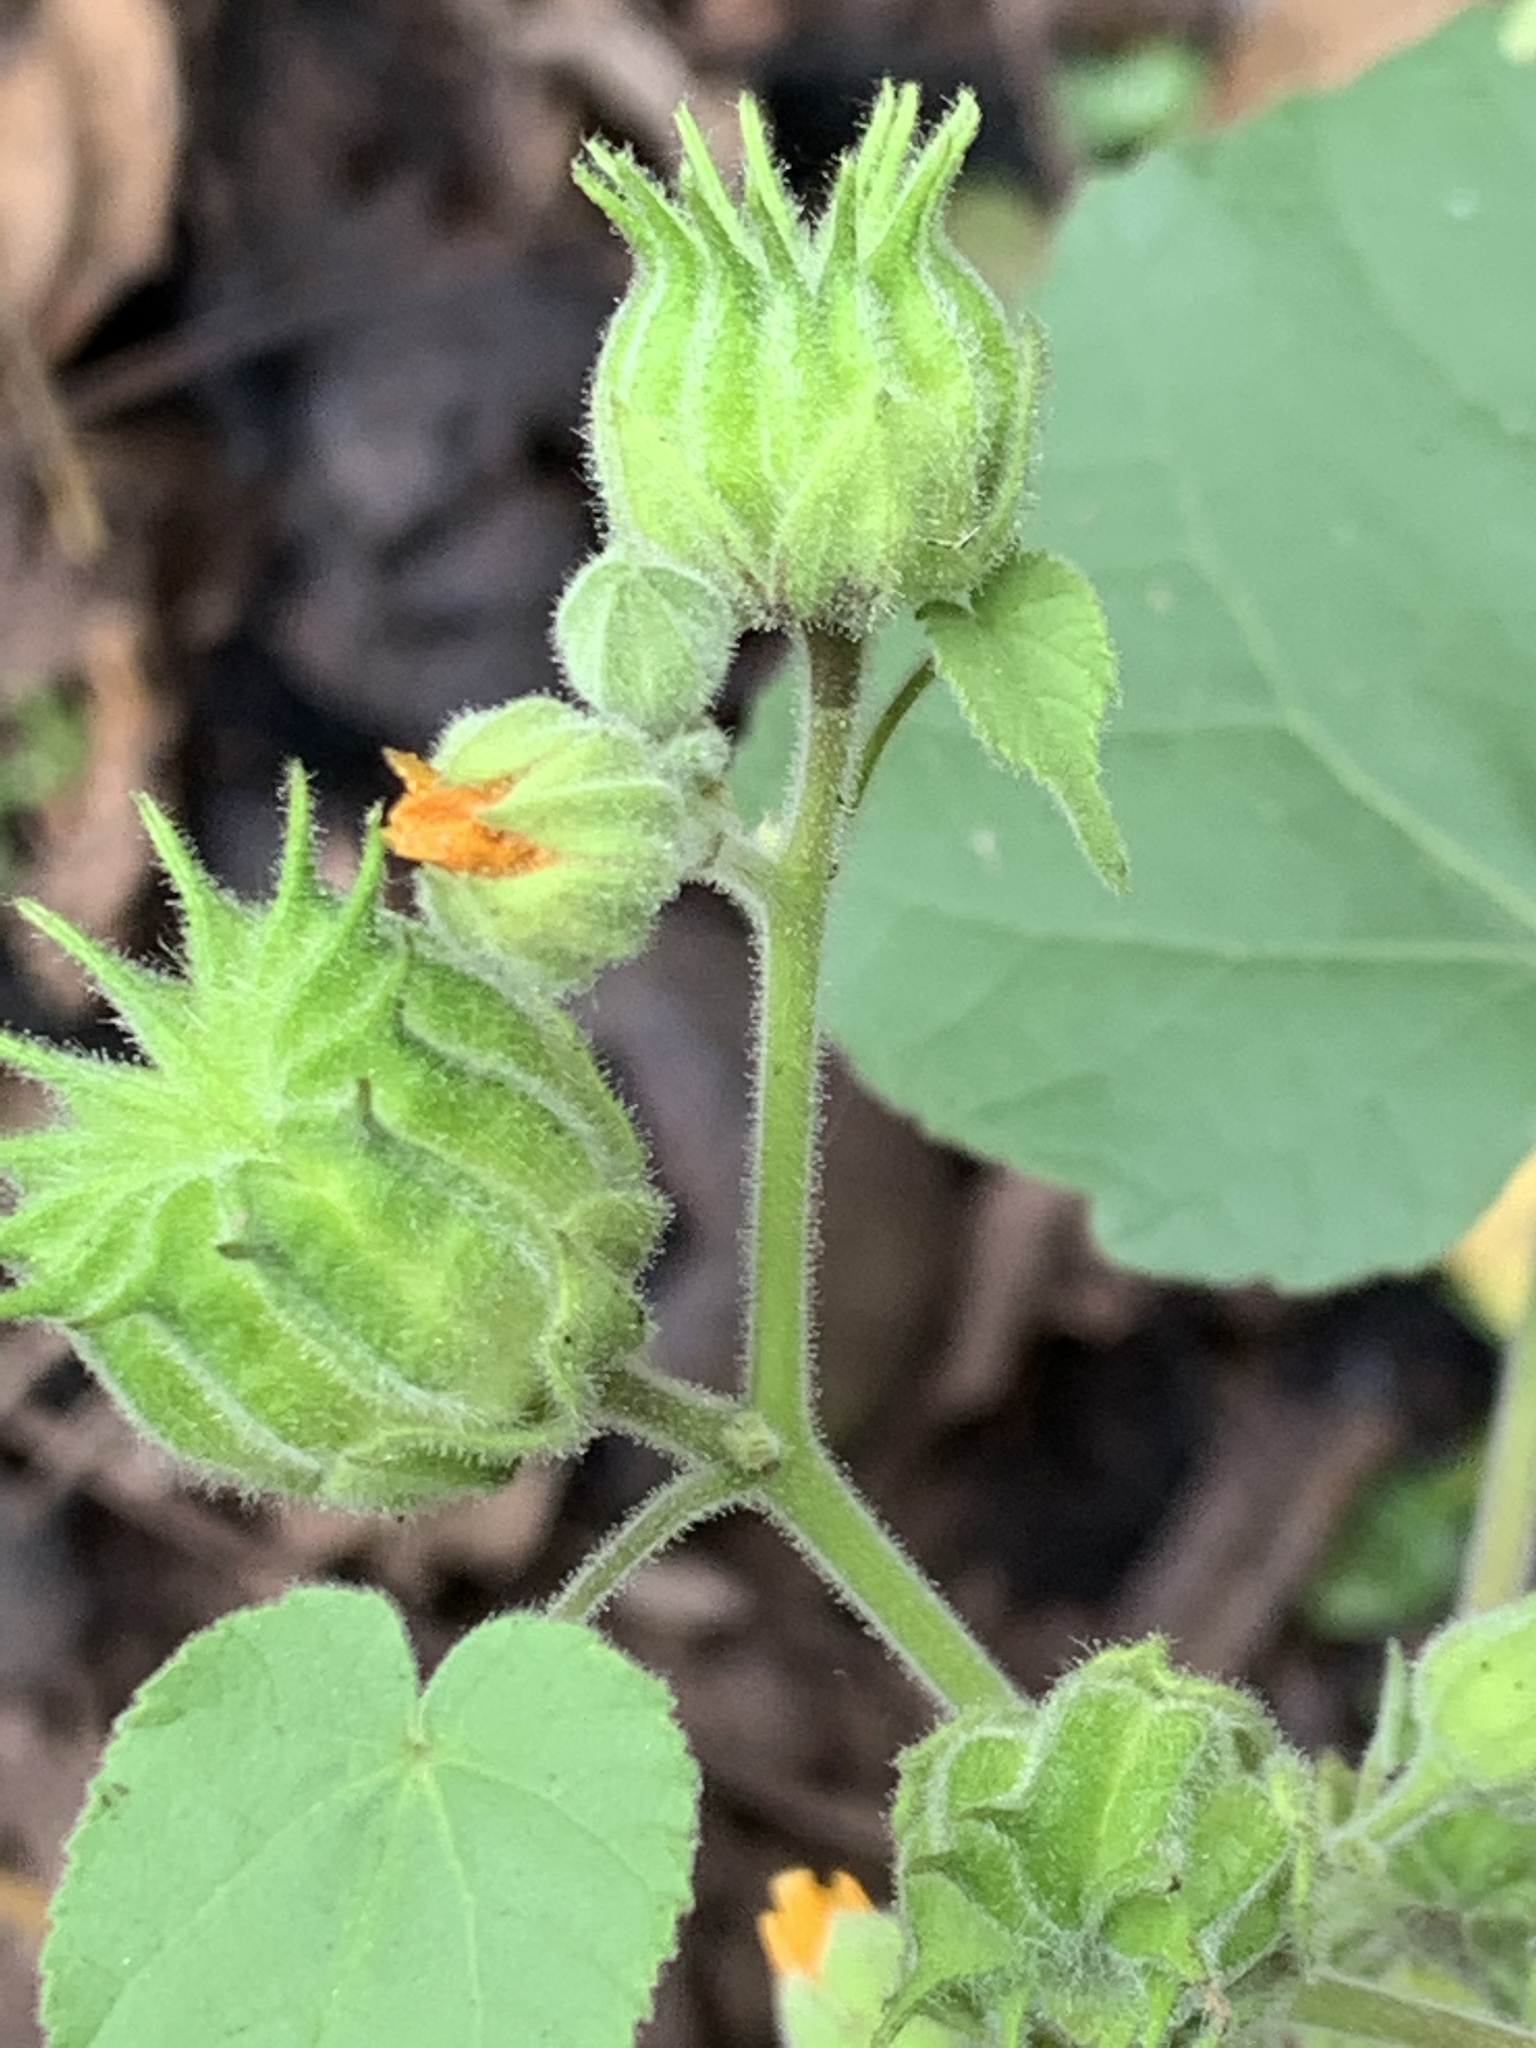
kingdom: Plantae
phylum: Tracheophyta
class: Magnoliopsida
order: Malvales
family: Malvaceae
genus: Abutilon
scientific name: Abutilon theophrasti
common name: Velvetleaf
